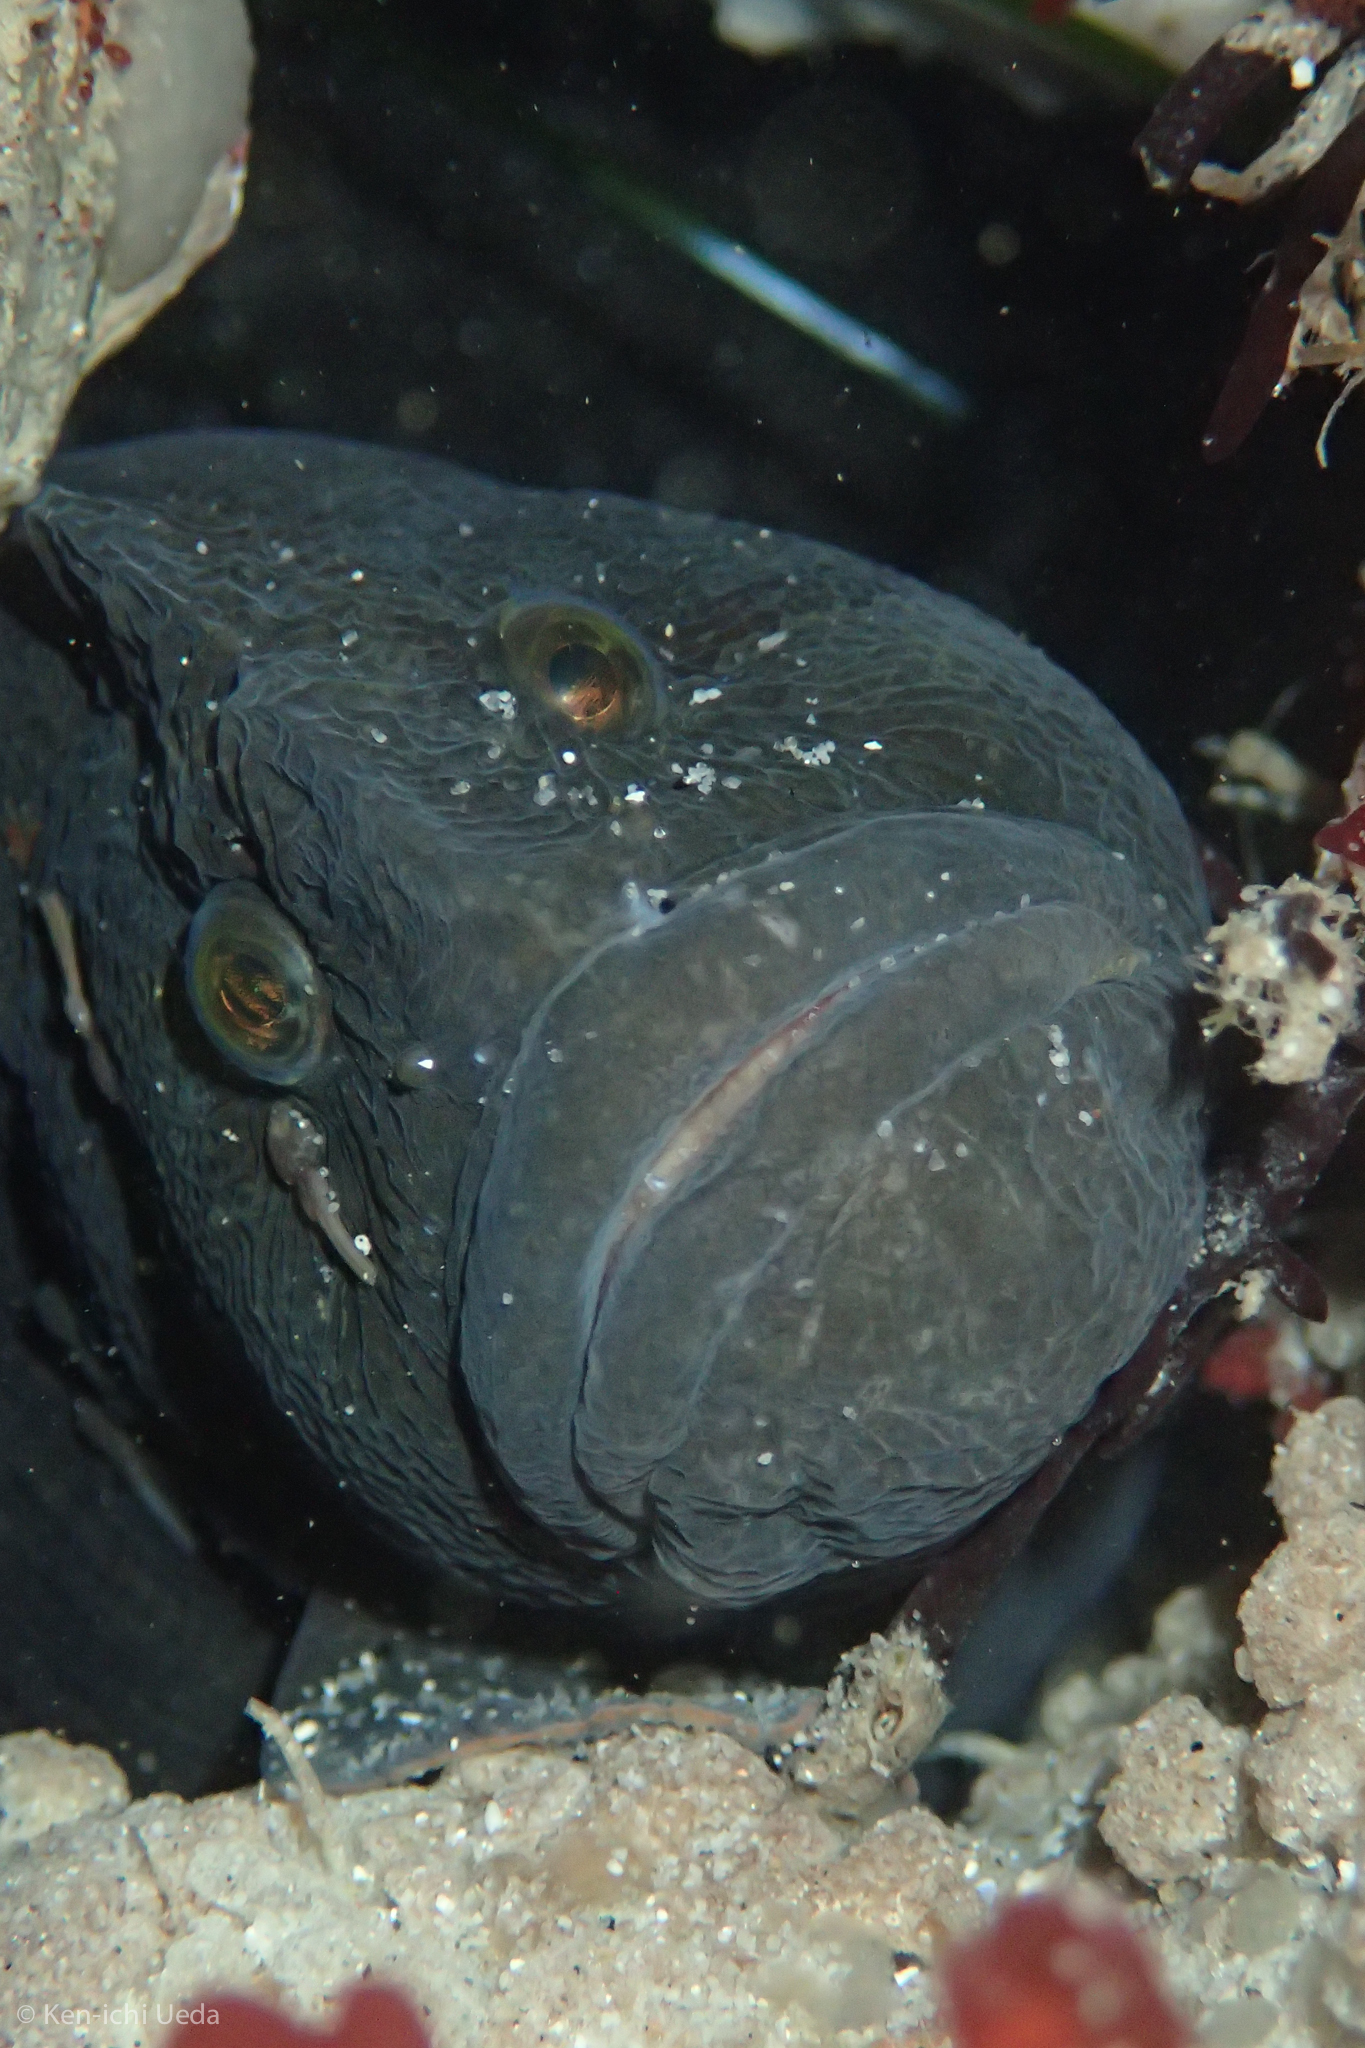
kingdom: Animalia
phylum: Chordata
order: Perciformes
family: Stichaeidae
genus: Cebidichthys
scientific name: Cebidichthys violaceus
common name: Monkeyface prickleback
